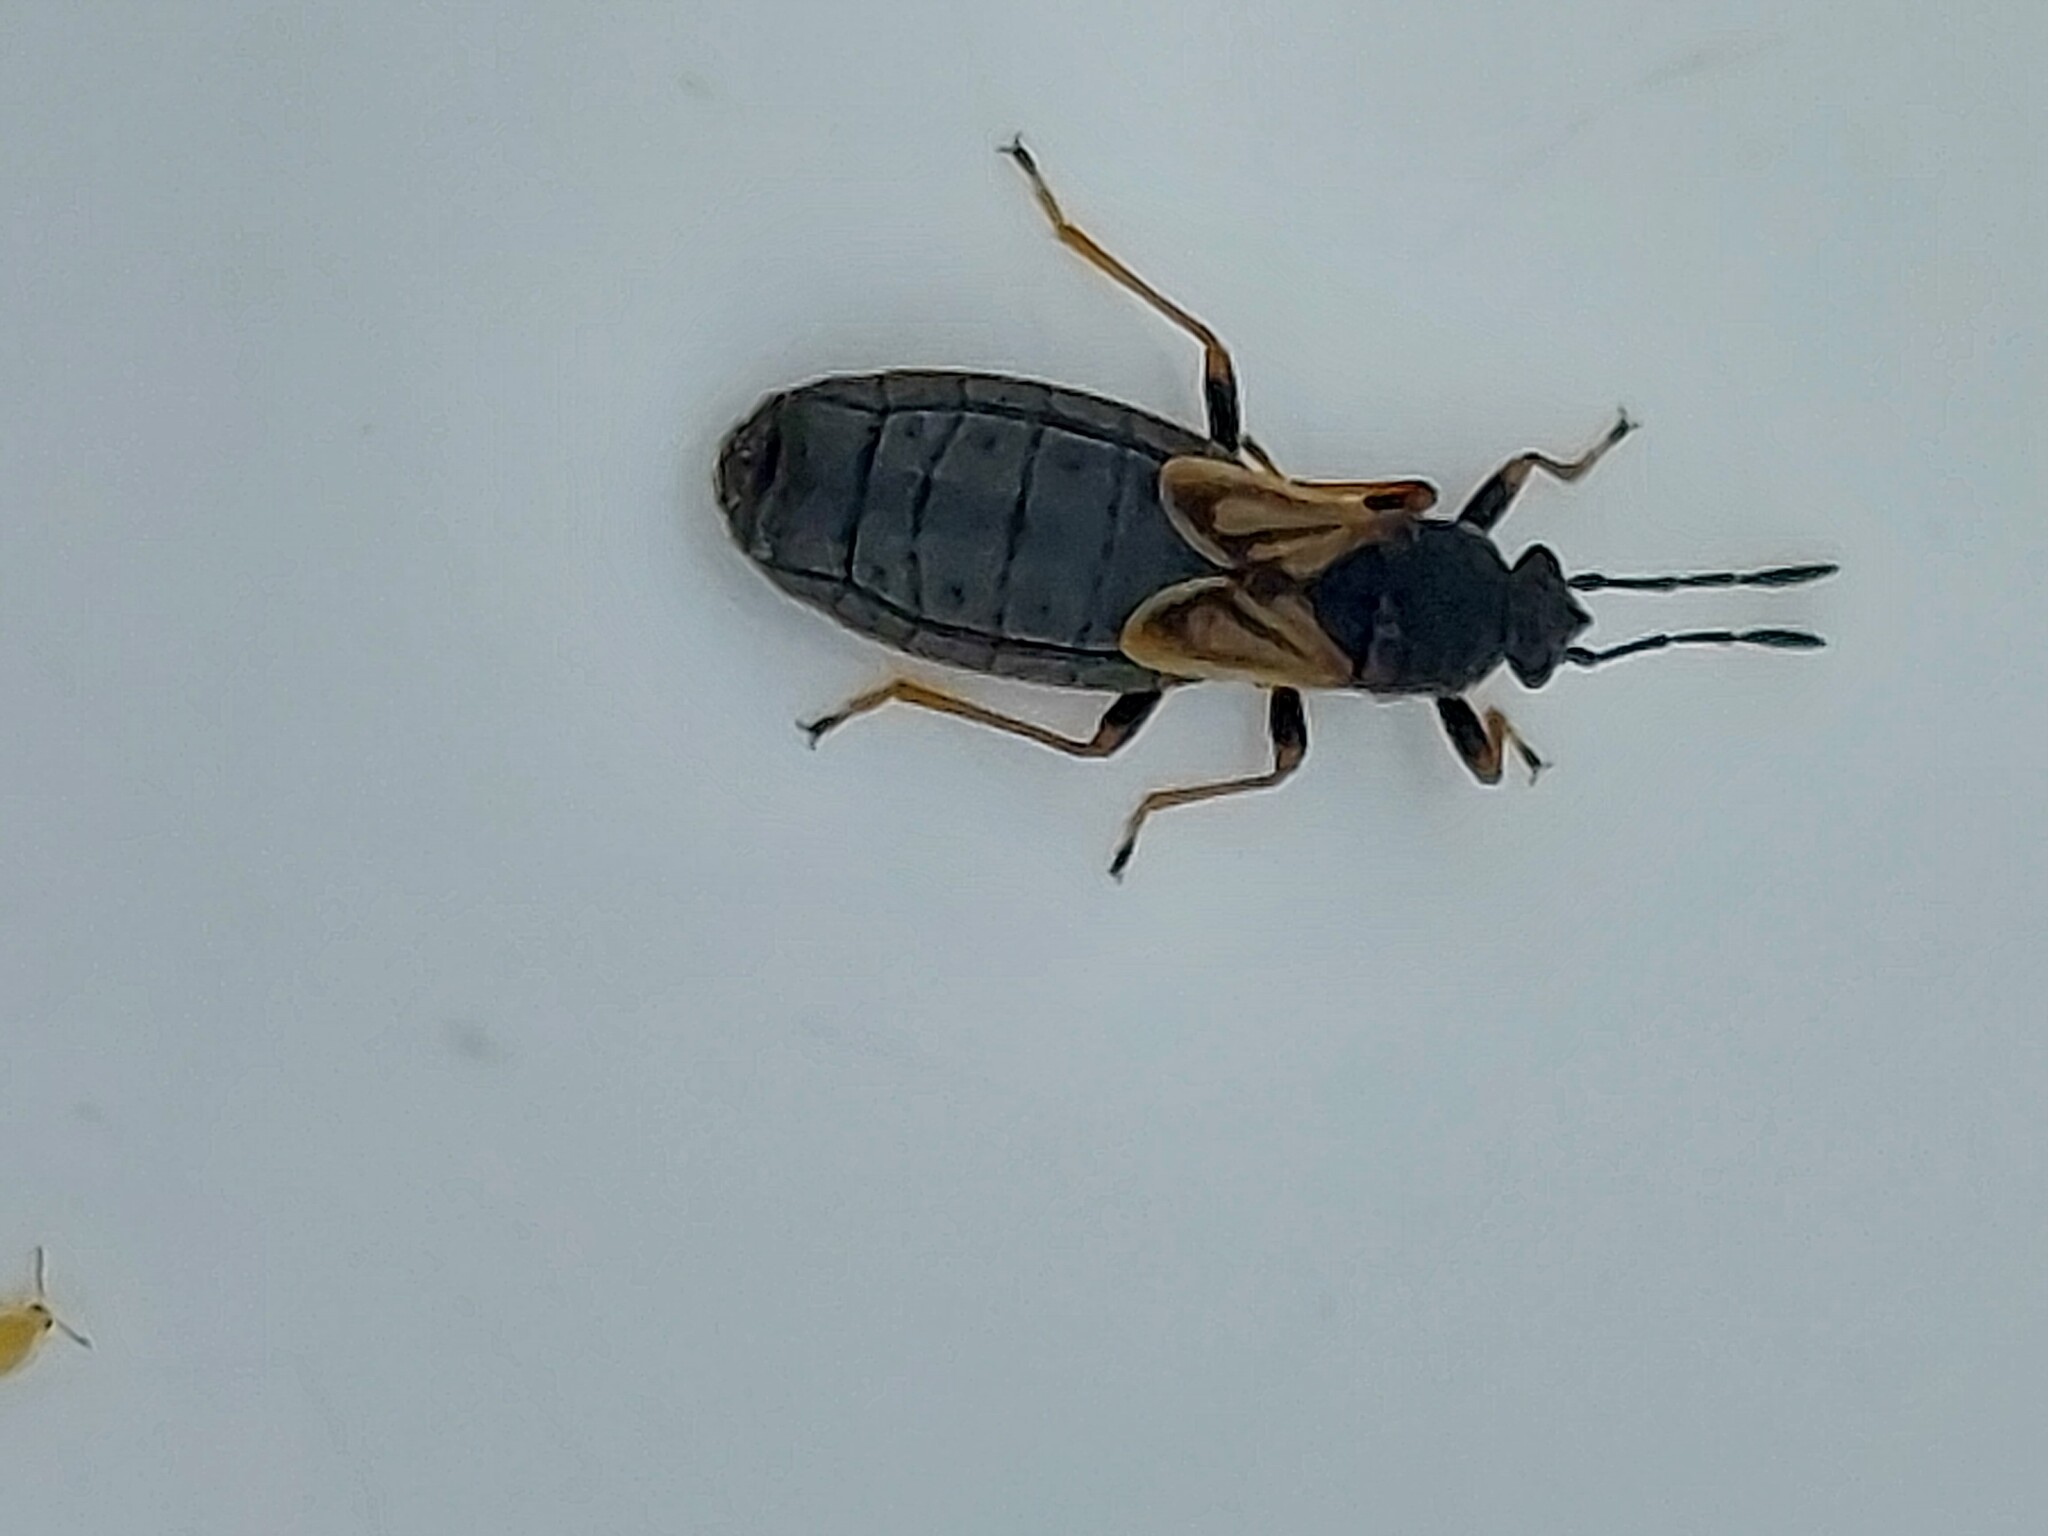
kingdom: Animalia
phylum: Arthropoda
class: Insecta
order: Hemiptera
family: Blissidae
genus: Ischnodemus
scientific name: Ischnodemus sabuleti
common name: European cinchbug
